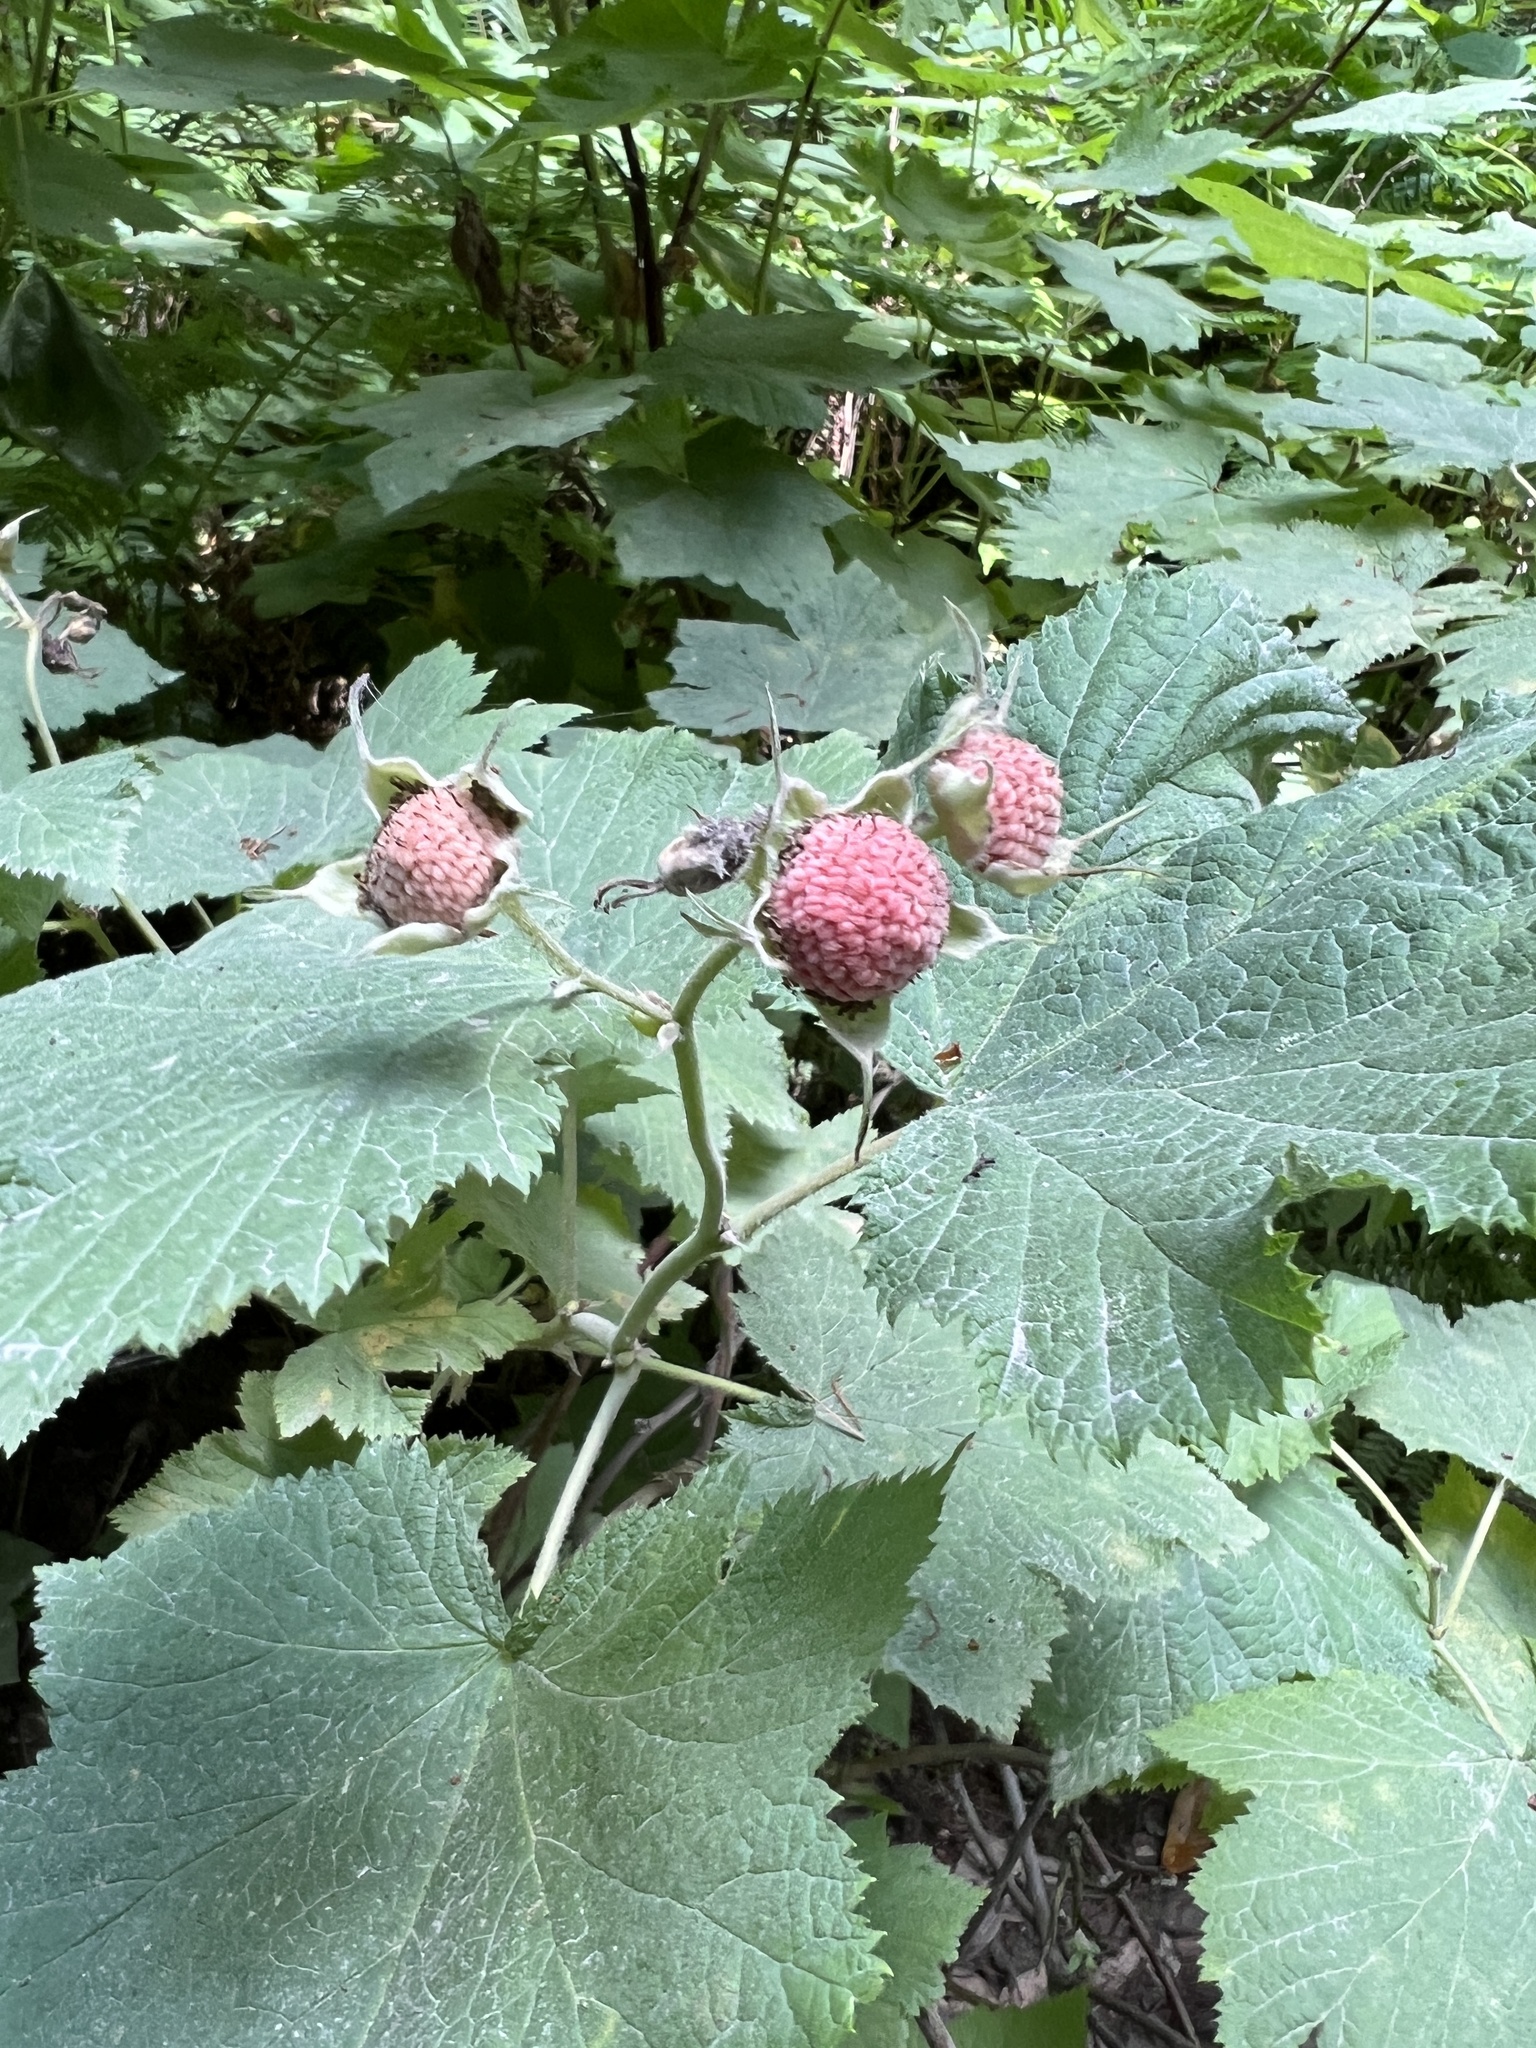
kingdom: Plantae
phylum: Tracheophyta
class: Magnoliopsida
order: Rosales
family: Rosaceae
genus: Rubus
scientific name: Rubus parviflorus
